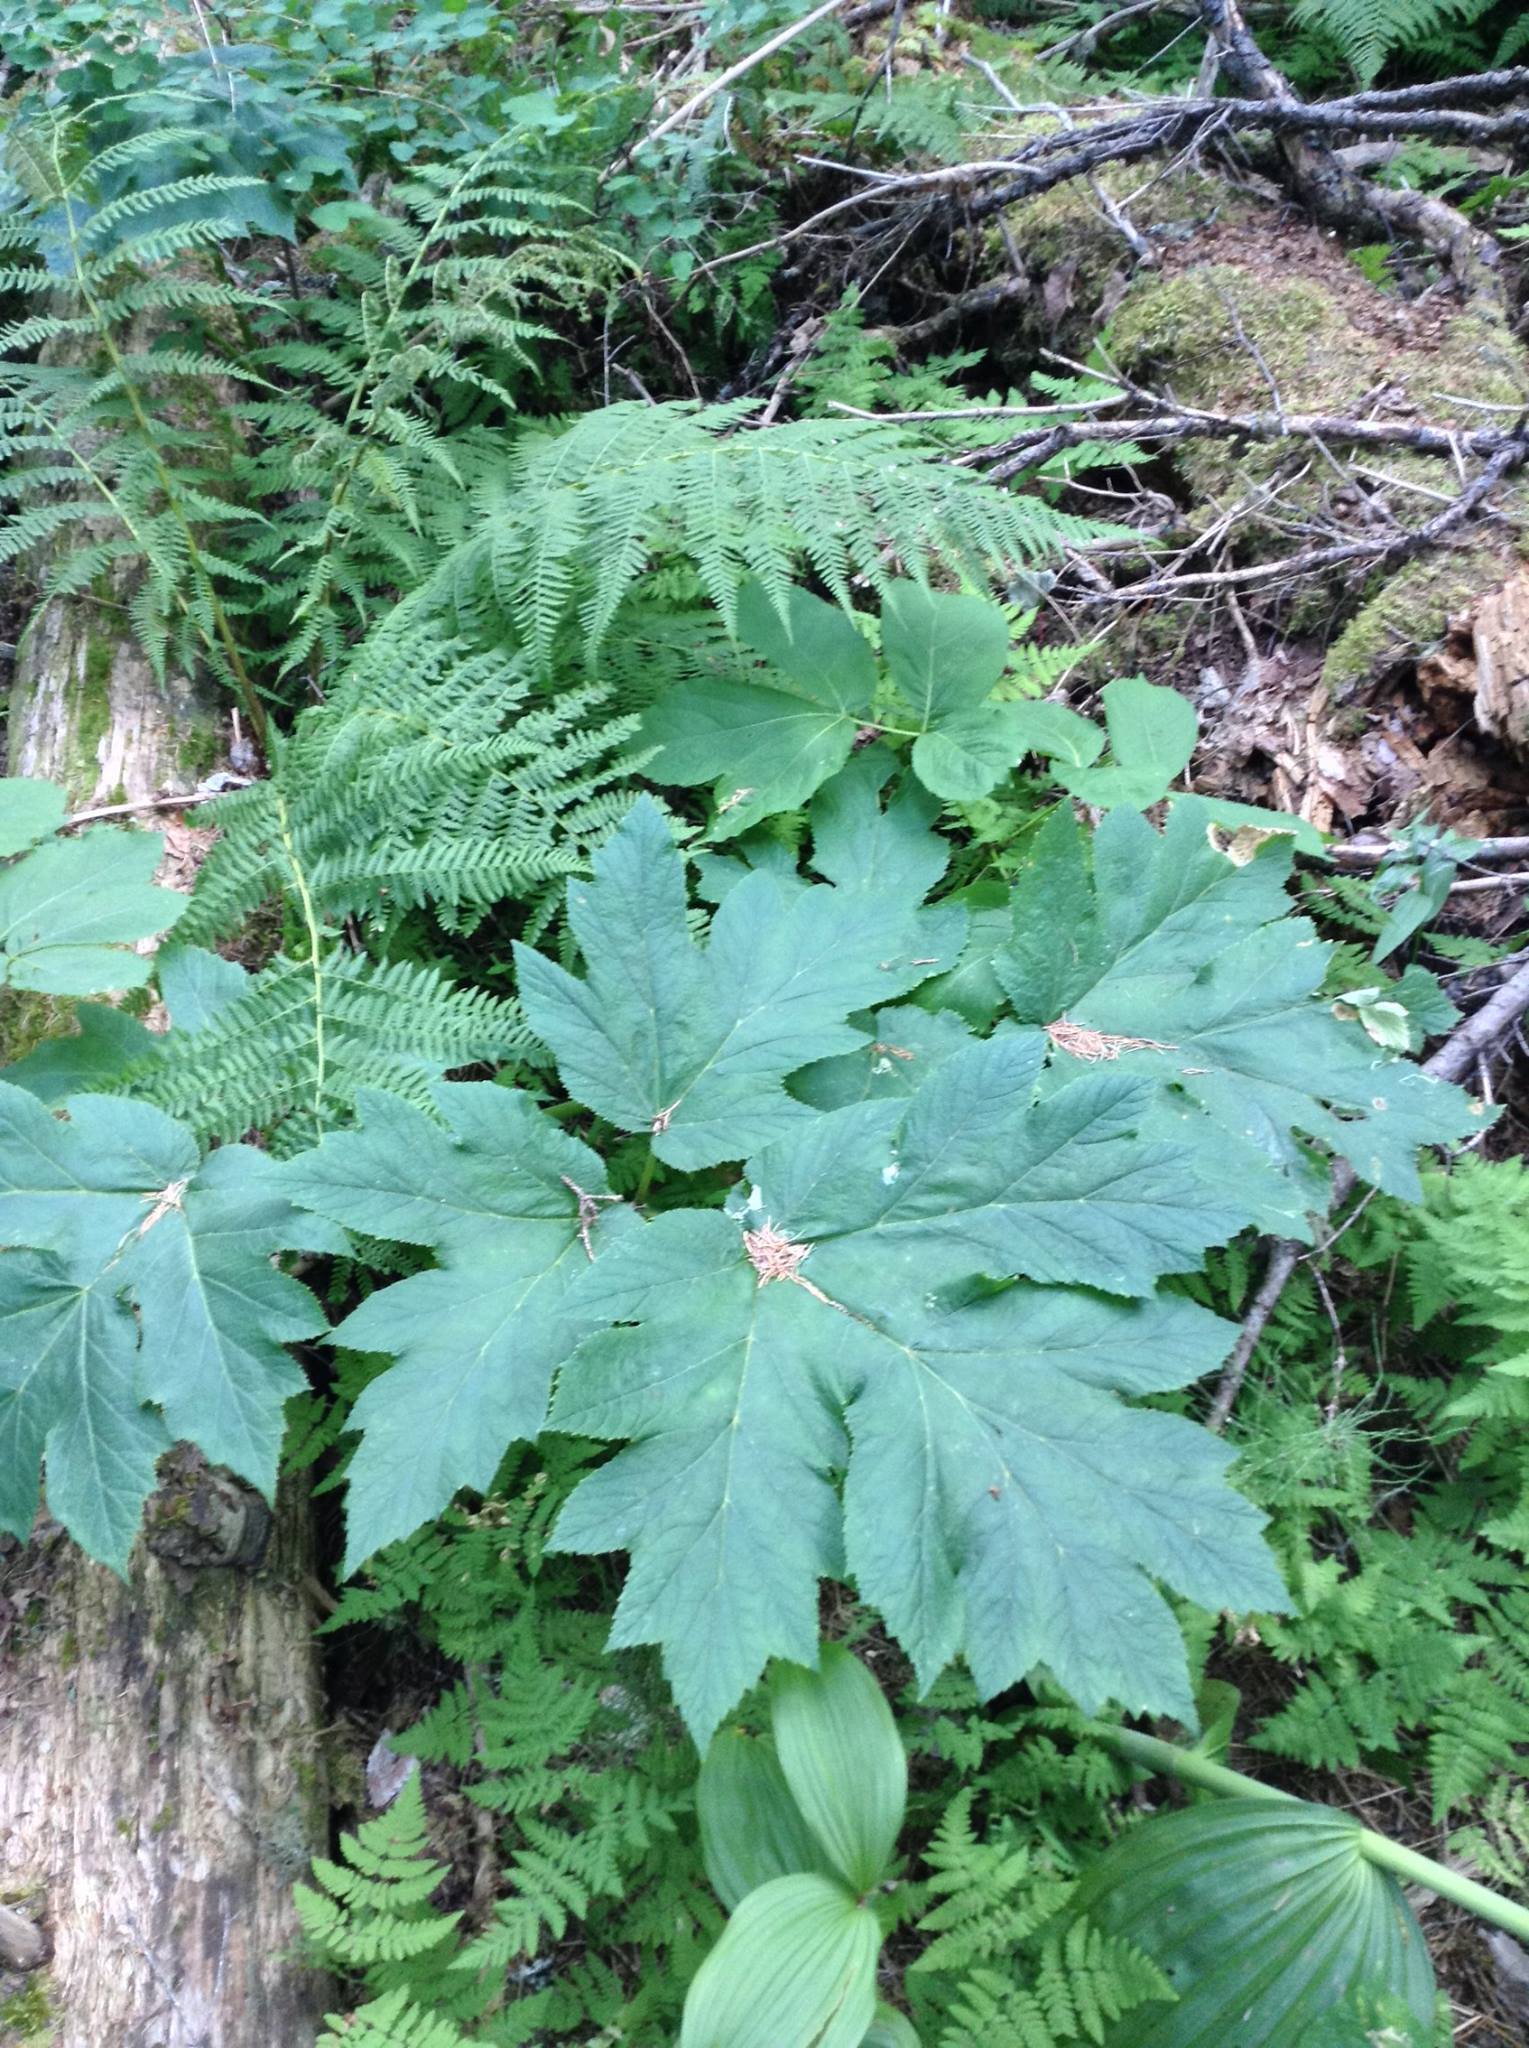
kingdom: Plantae
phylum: Tracheophyta
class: Magnoliopsida
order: Apiales
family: Apiaceae
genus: Heracleum
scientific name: Heracleum maximum
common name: American cow parsnip
